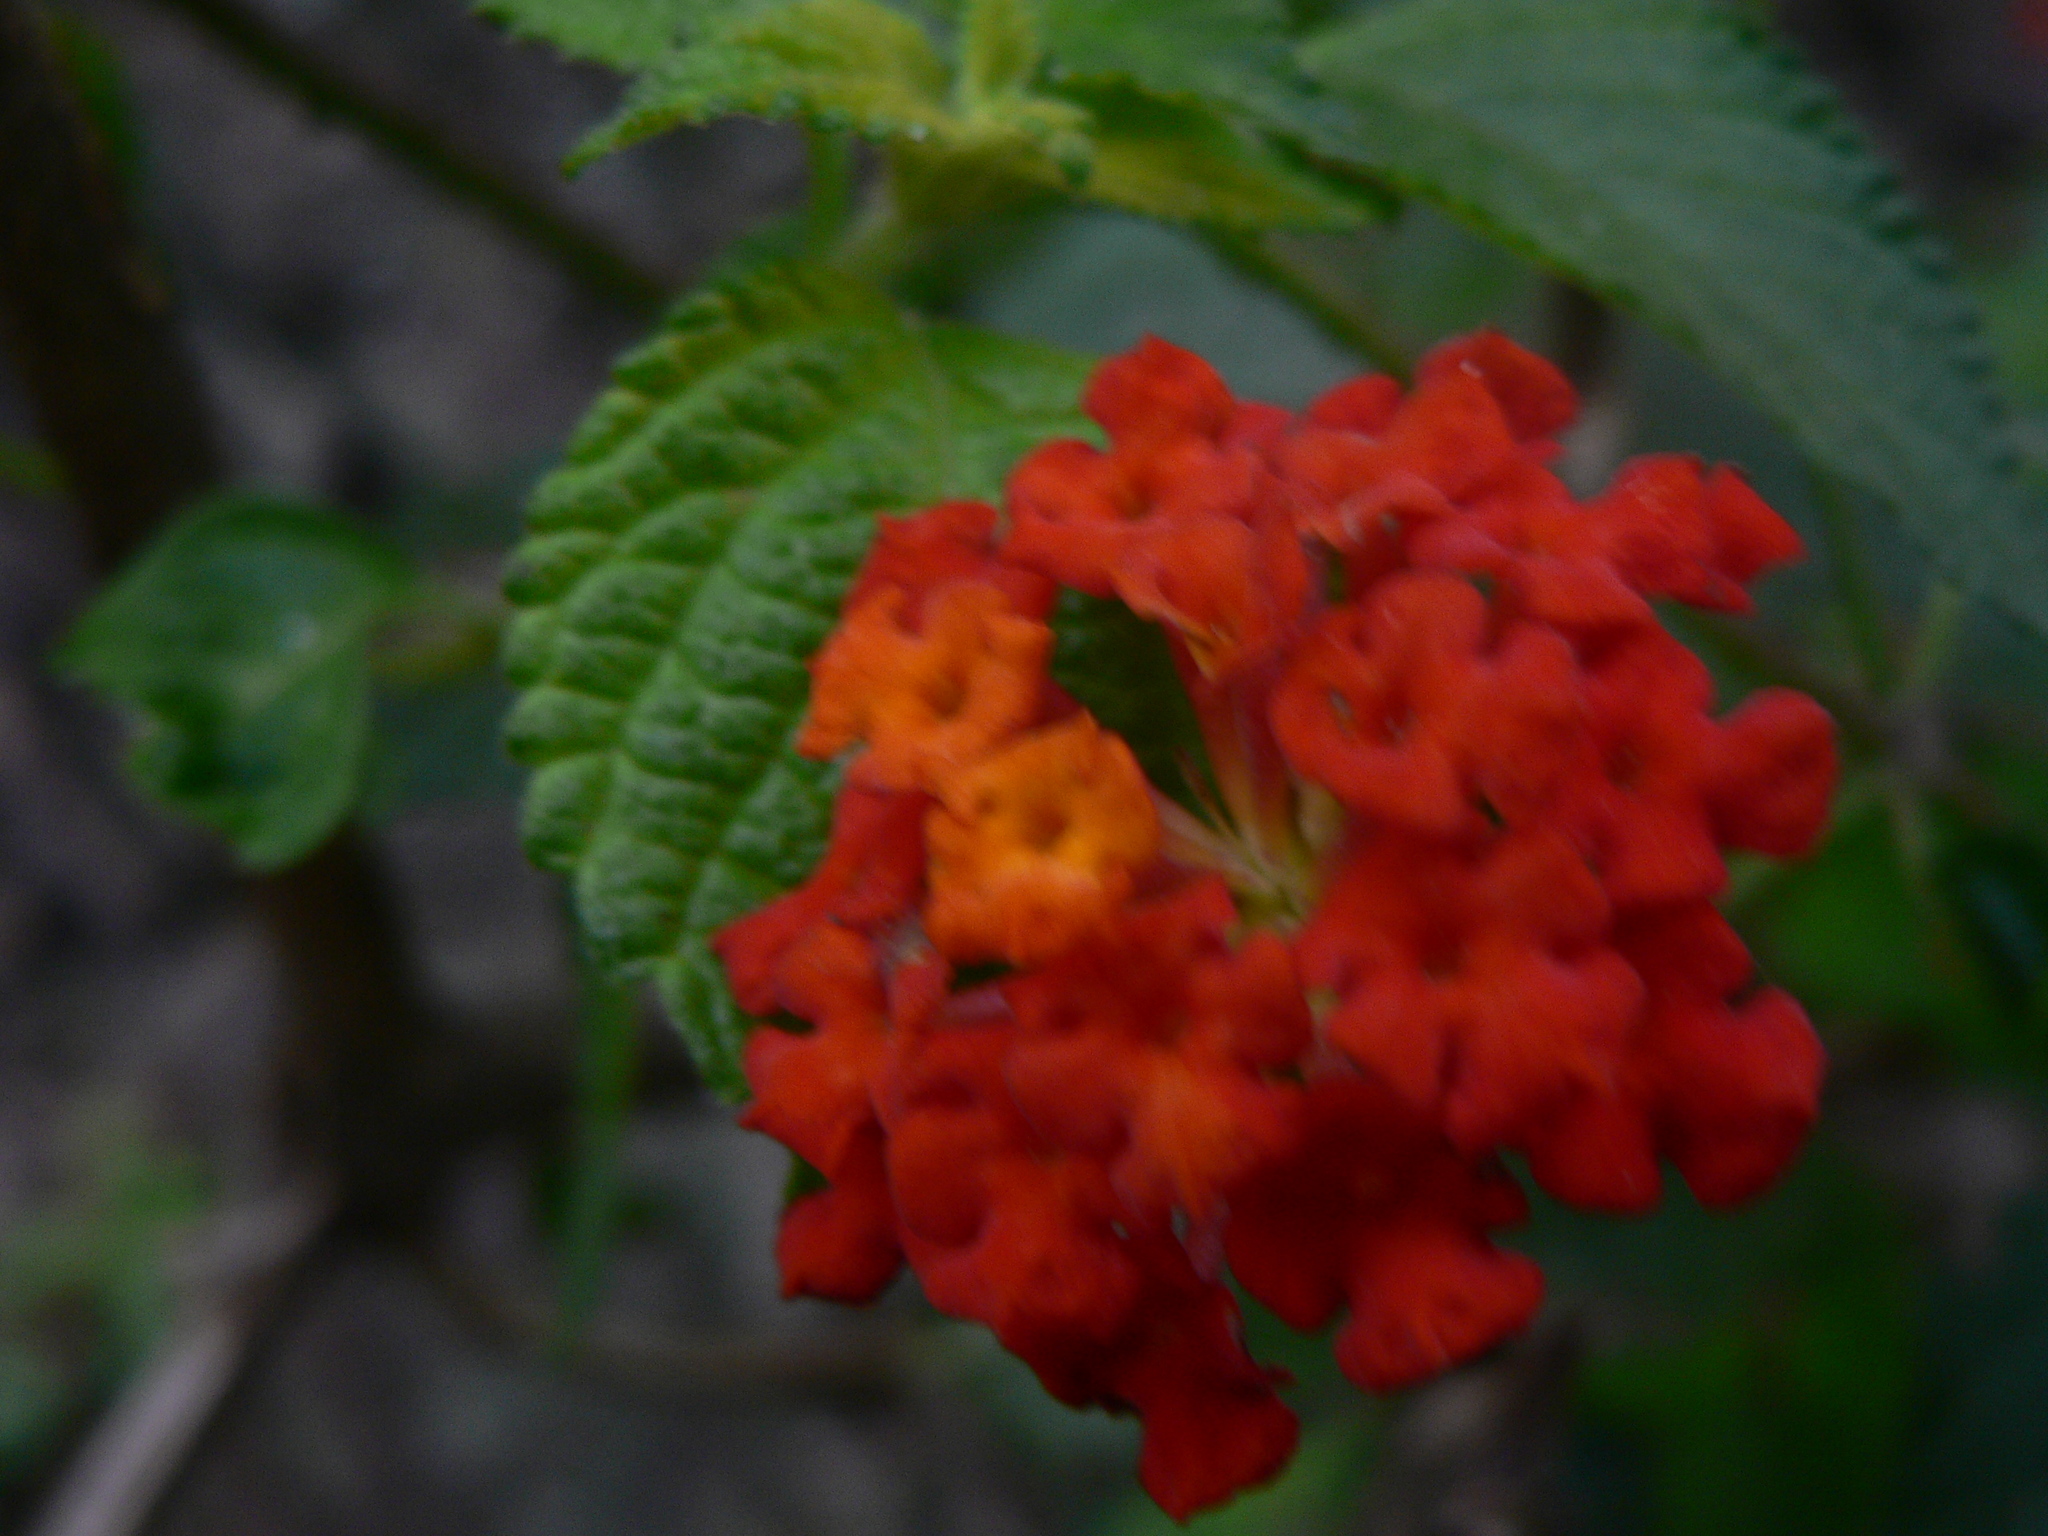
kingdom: Plantae
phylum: Tracheophyta
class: Magnoliopsida
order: Lamiales
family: Verbenaceae
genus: Lantana
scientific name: Lantana camara
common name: Lantana
